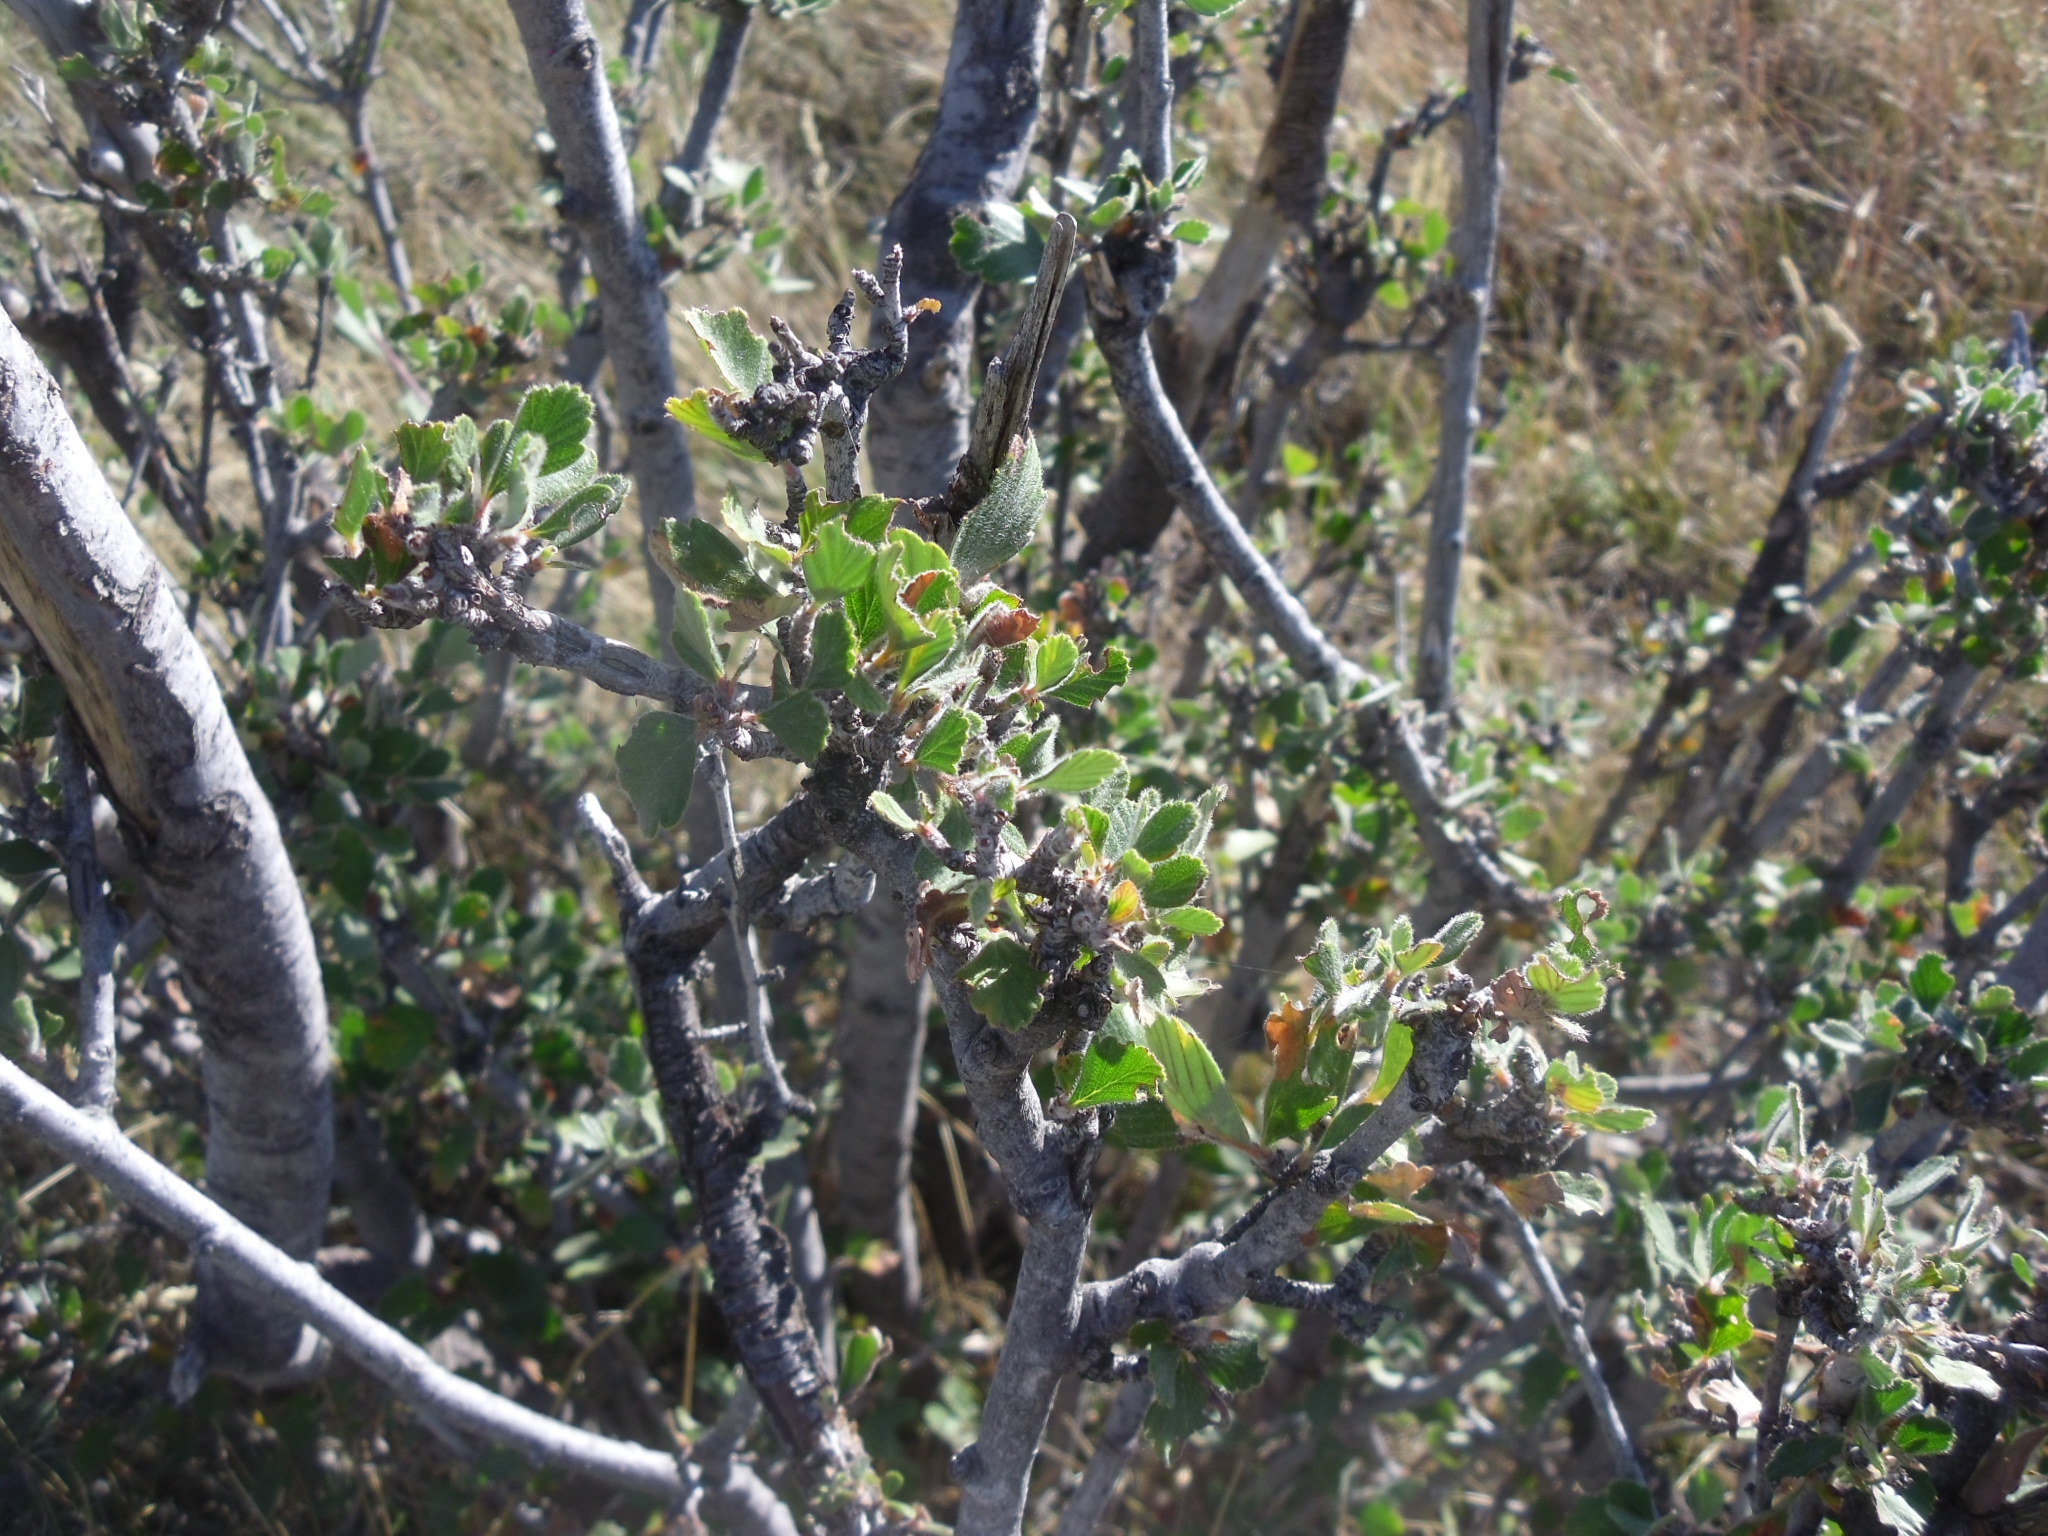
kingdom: Plantae
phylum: Tracheophyta
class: Magnoliopsida
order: Rosales
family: Rosaceae
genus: Cercocarpus
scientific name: Cercocarpus montanus
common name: Alder-leaf cercocarpus
